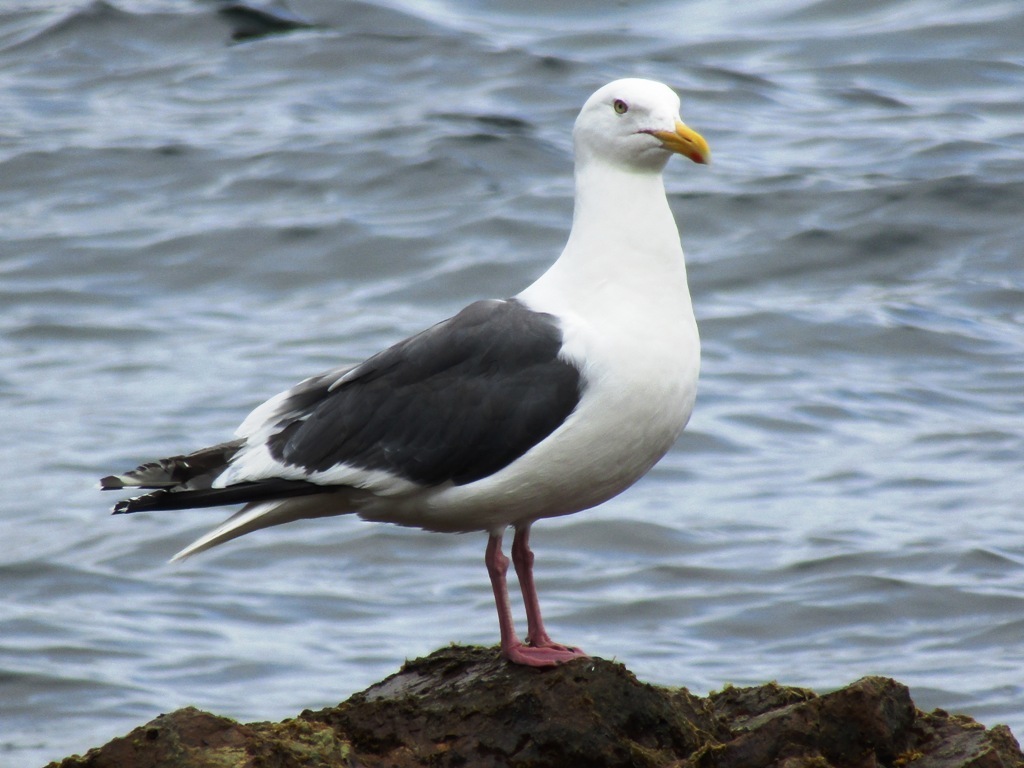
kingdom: Animalia
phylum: Chordata
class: Aves
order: Charadriiformes
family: Laridae
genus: Larus
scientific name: Larus schistisagus
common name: Slaty-backed gull
